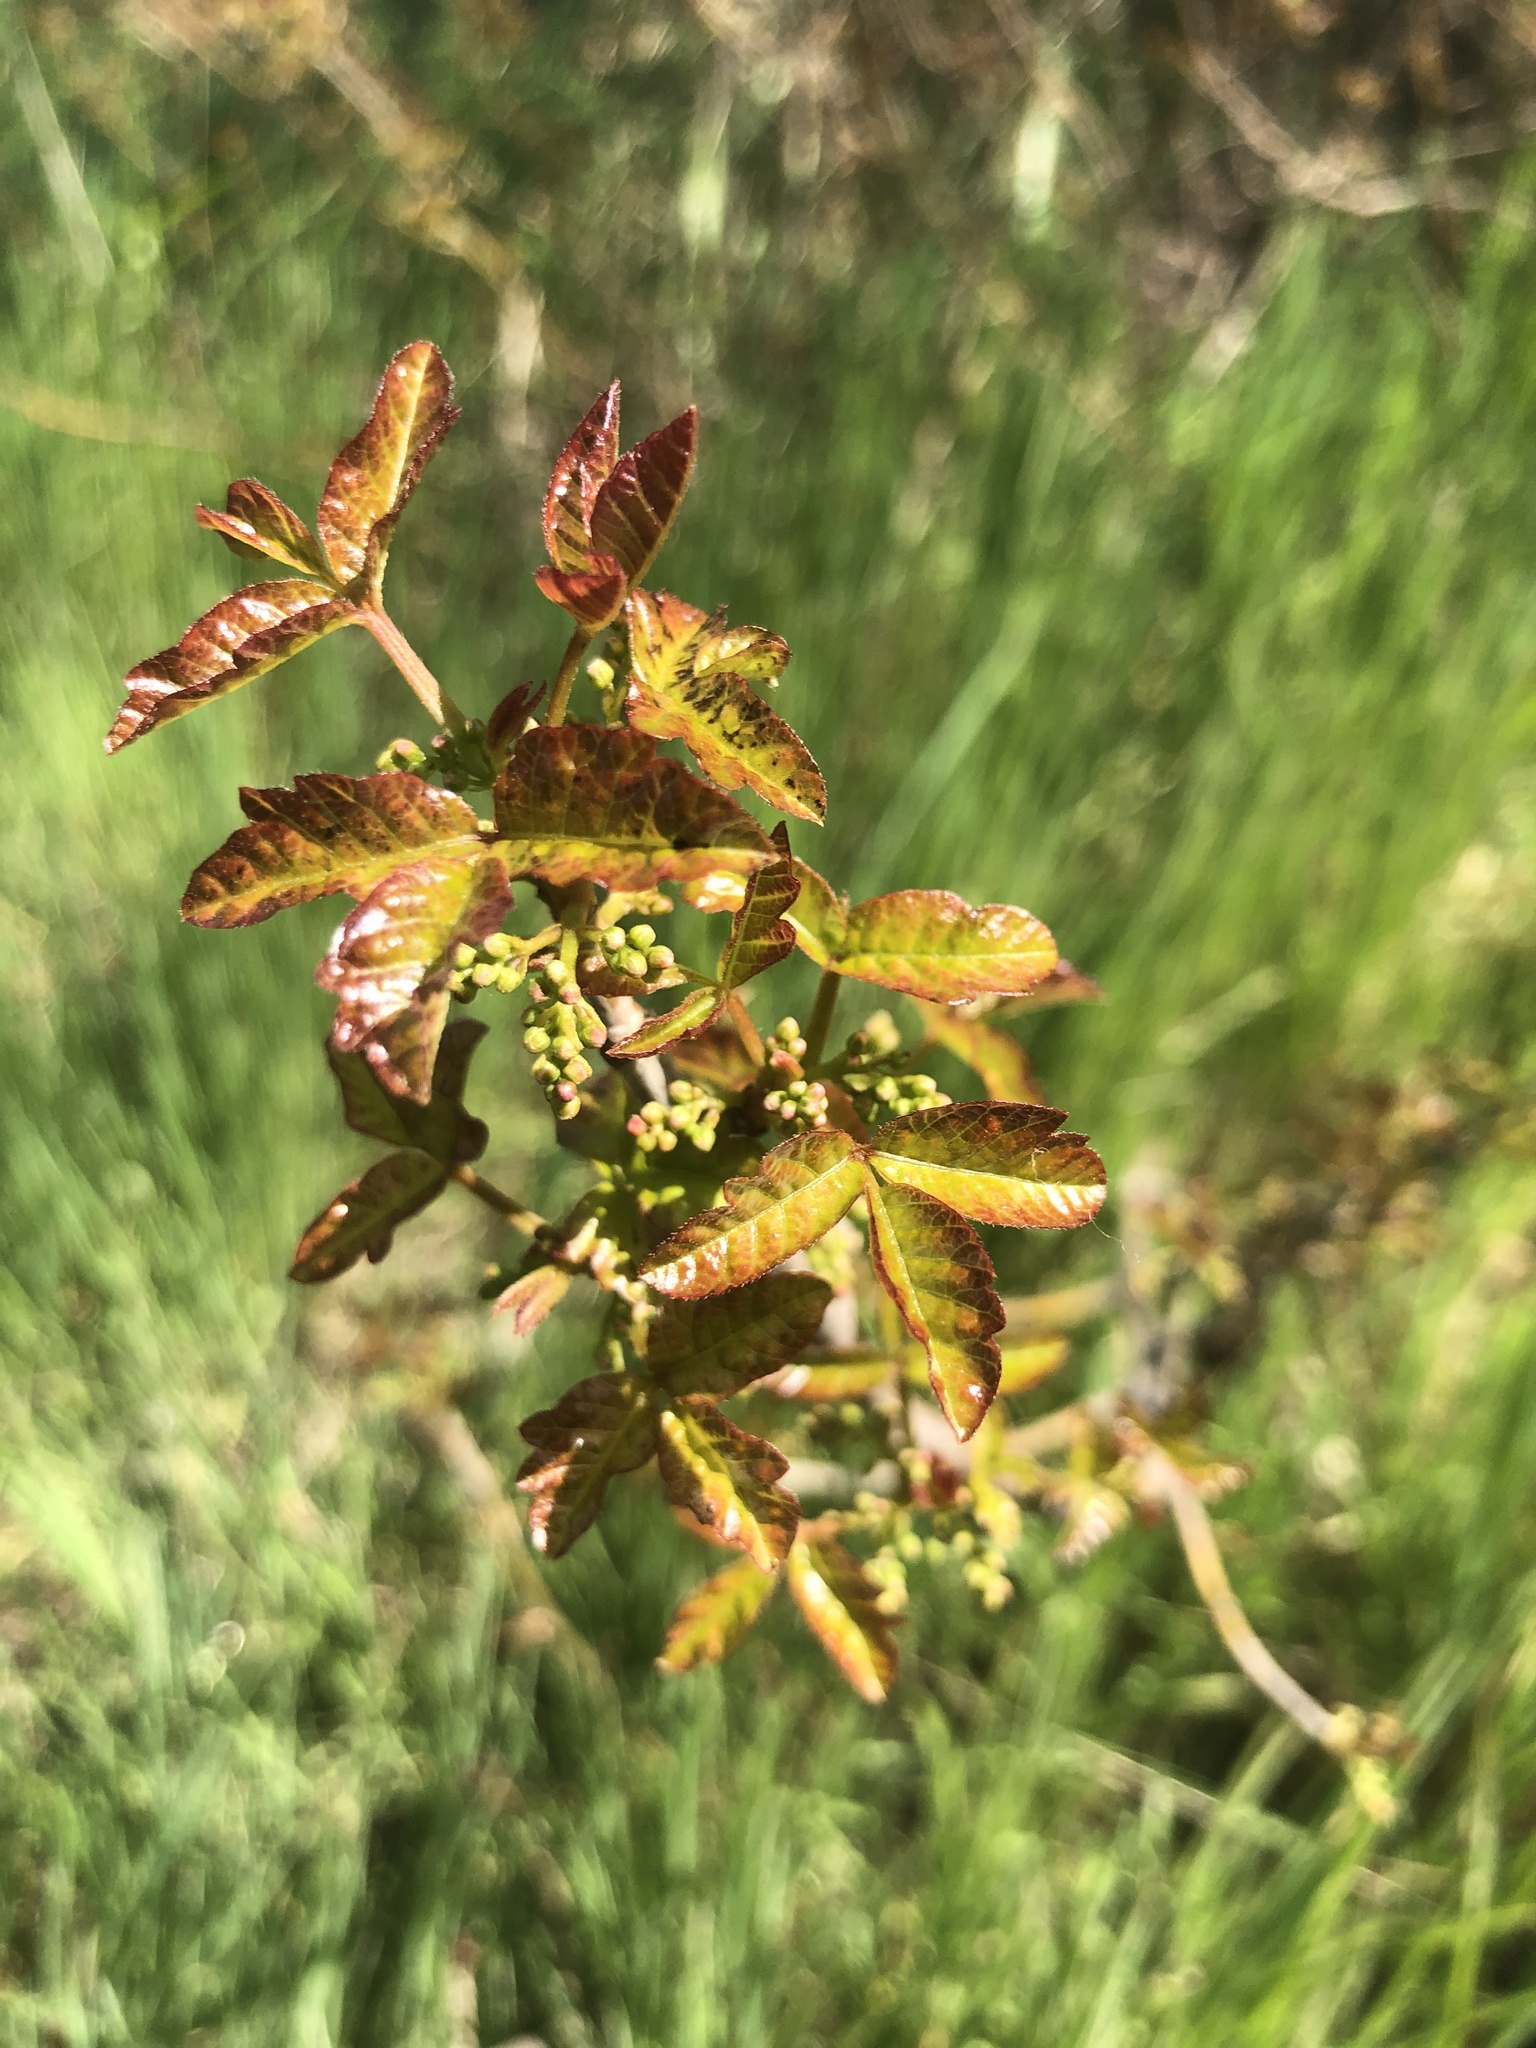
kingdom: Plantae
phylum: Tracheophyta
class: Magnoliopsida
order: Sapindales
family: Anacardiaceae
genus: Toxicodendron
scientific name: Toxicodendron diversilobum
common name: Pacific poison-oak
